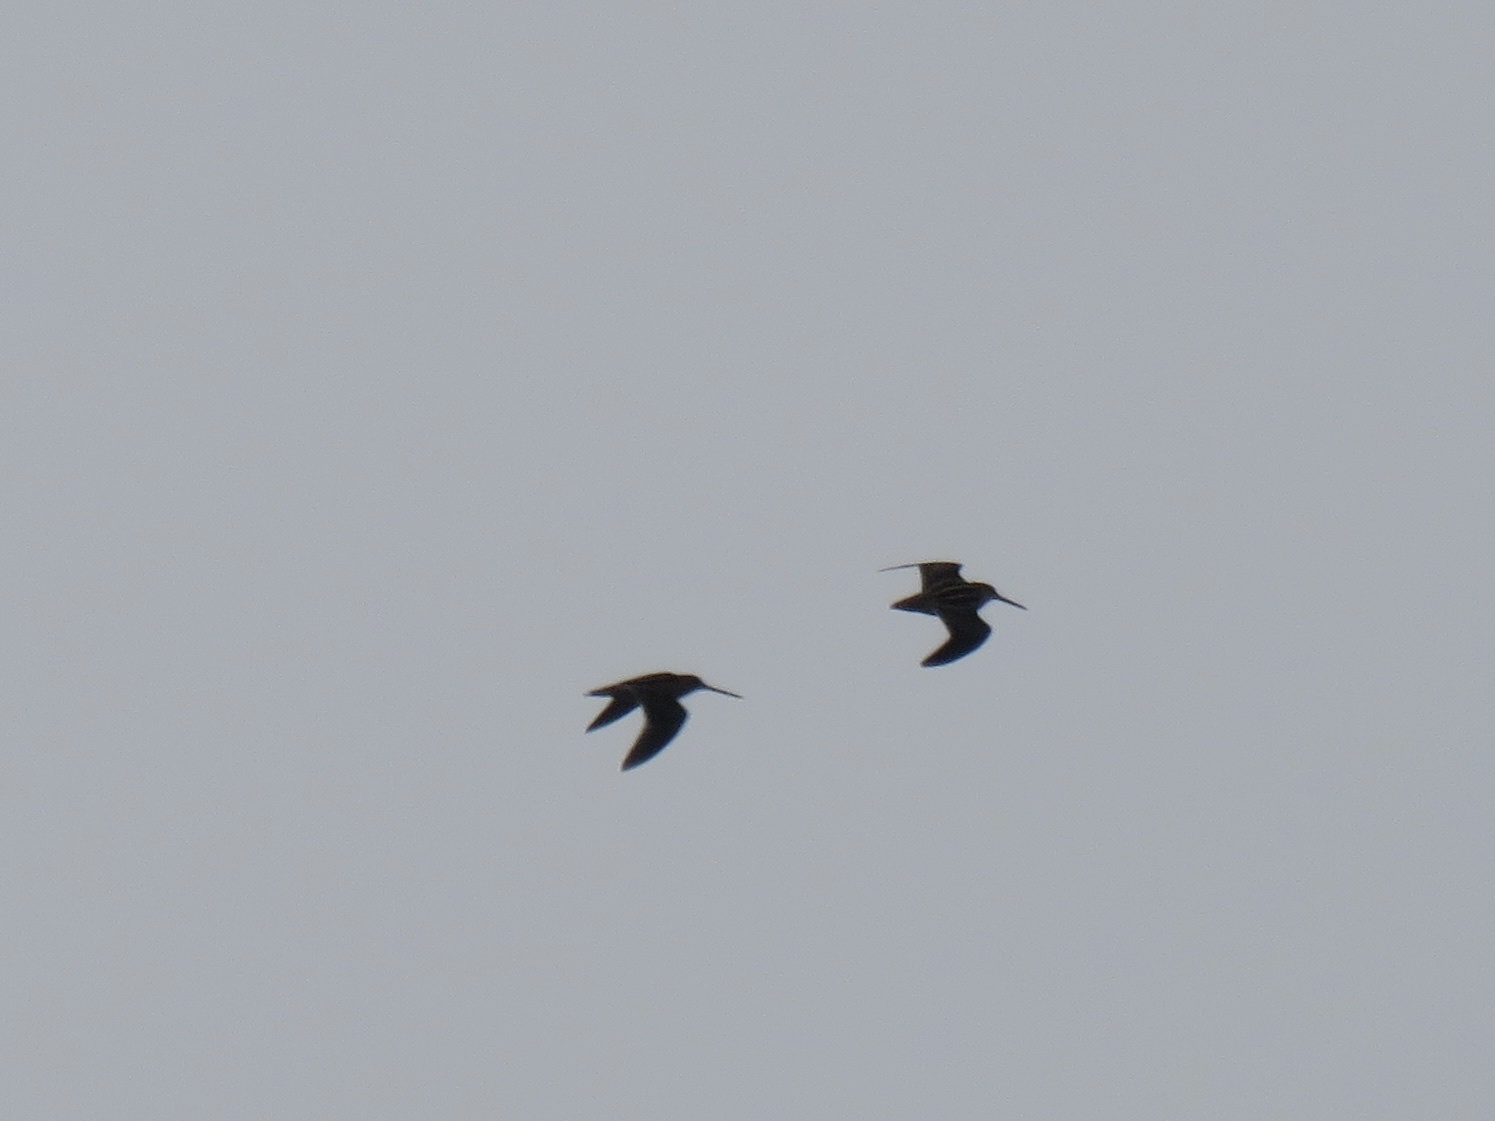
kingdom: Animalia
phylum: Chordata
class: Aves
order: Charadriiformes
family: Scolopacidae
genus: Gallinago
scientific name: Gallinago delicata
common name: Wilson's snipe
